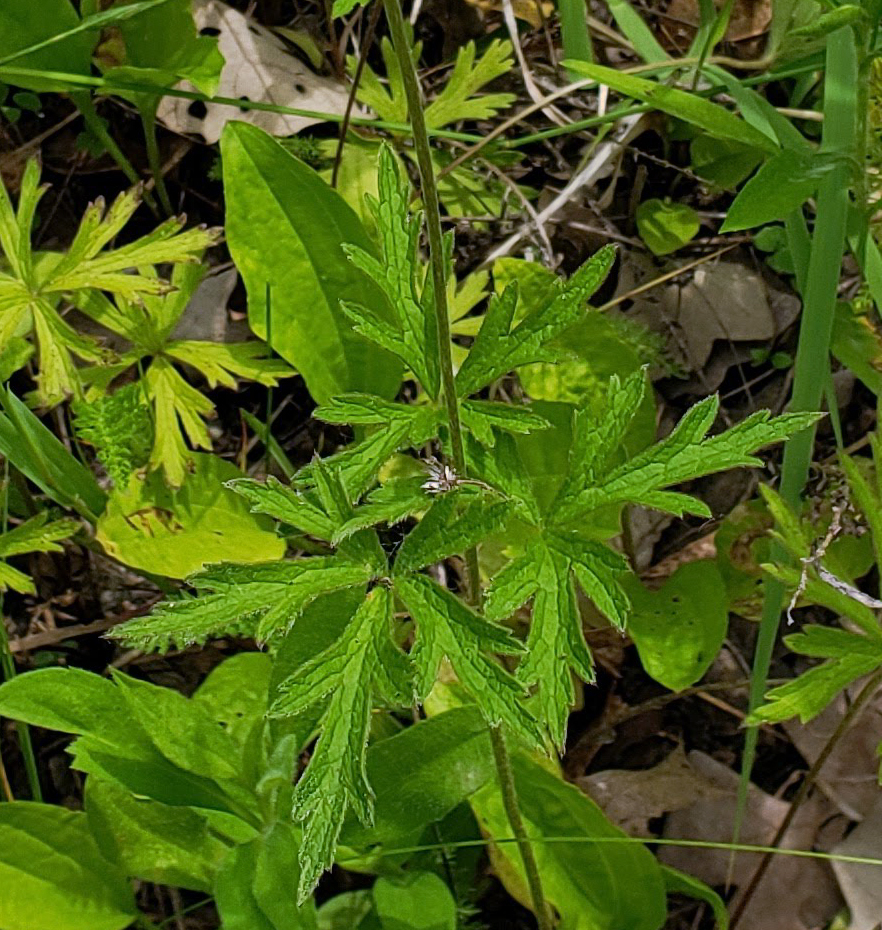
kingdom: Plantae
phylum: Tracheophyta
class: Magnoliopsida
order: Ranunculales
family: Ranunculaceae
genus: Anemone
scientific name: Anemone cylindrica
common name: Candle anemone
